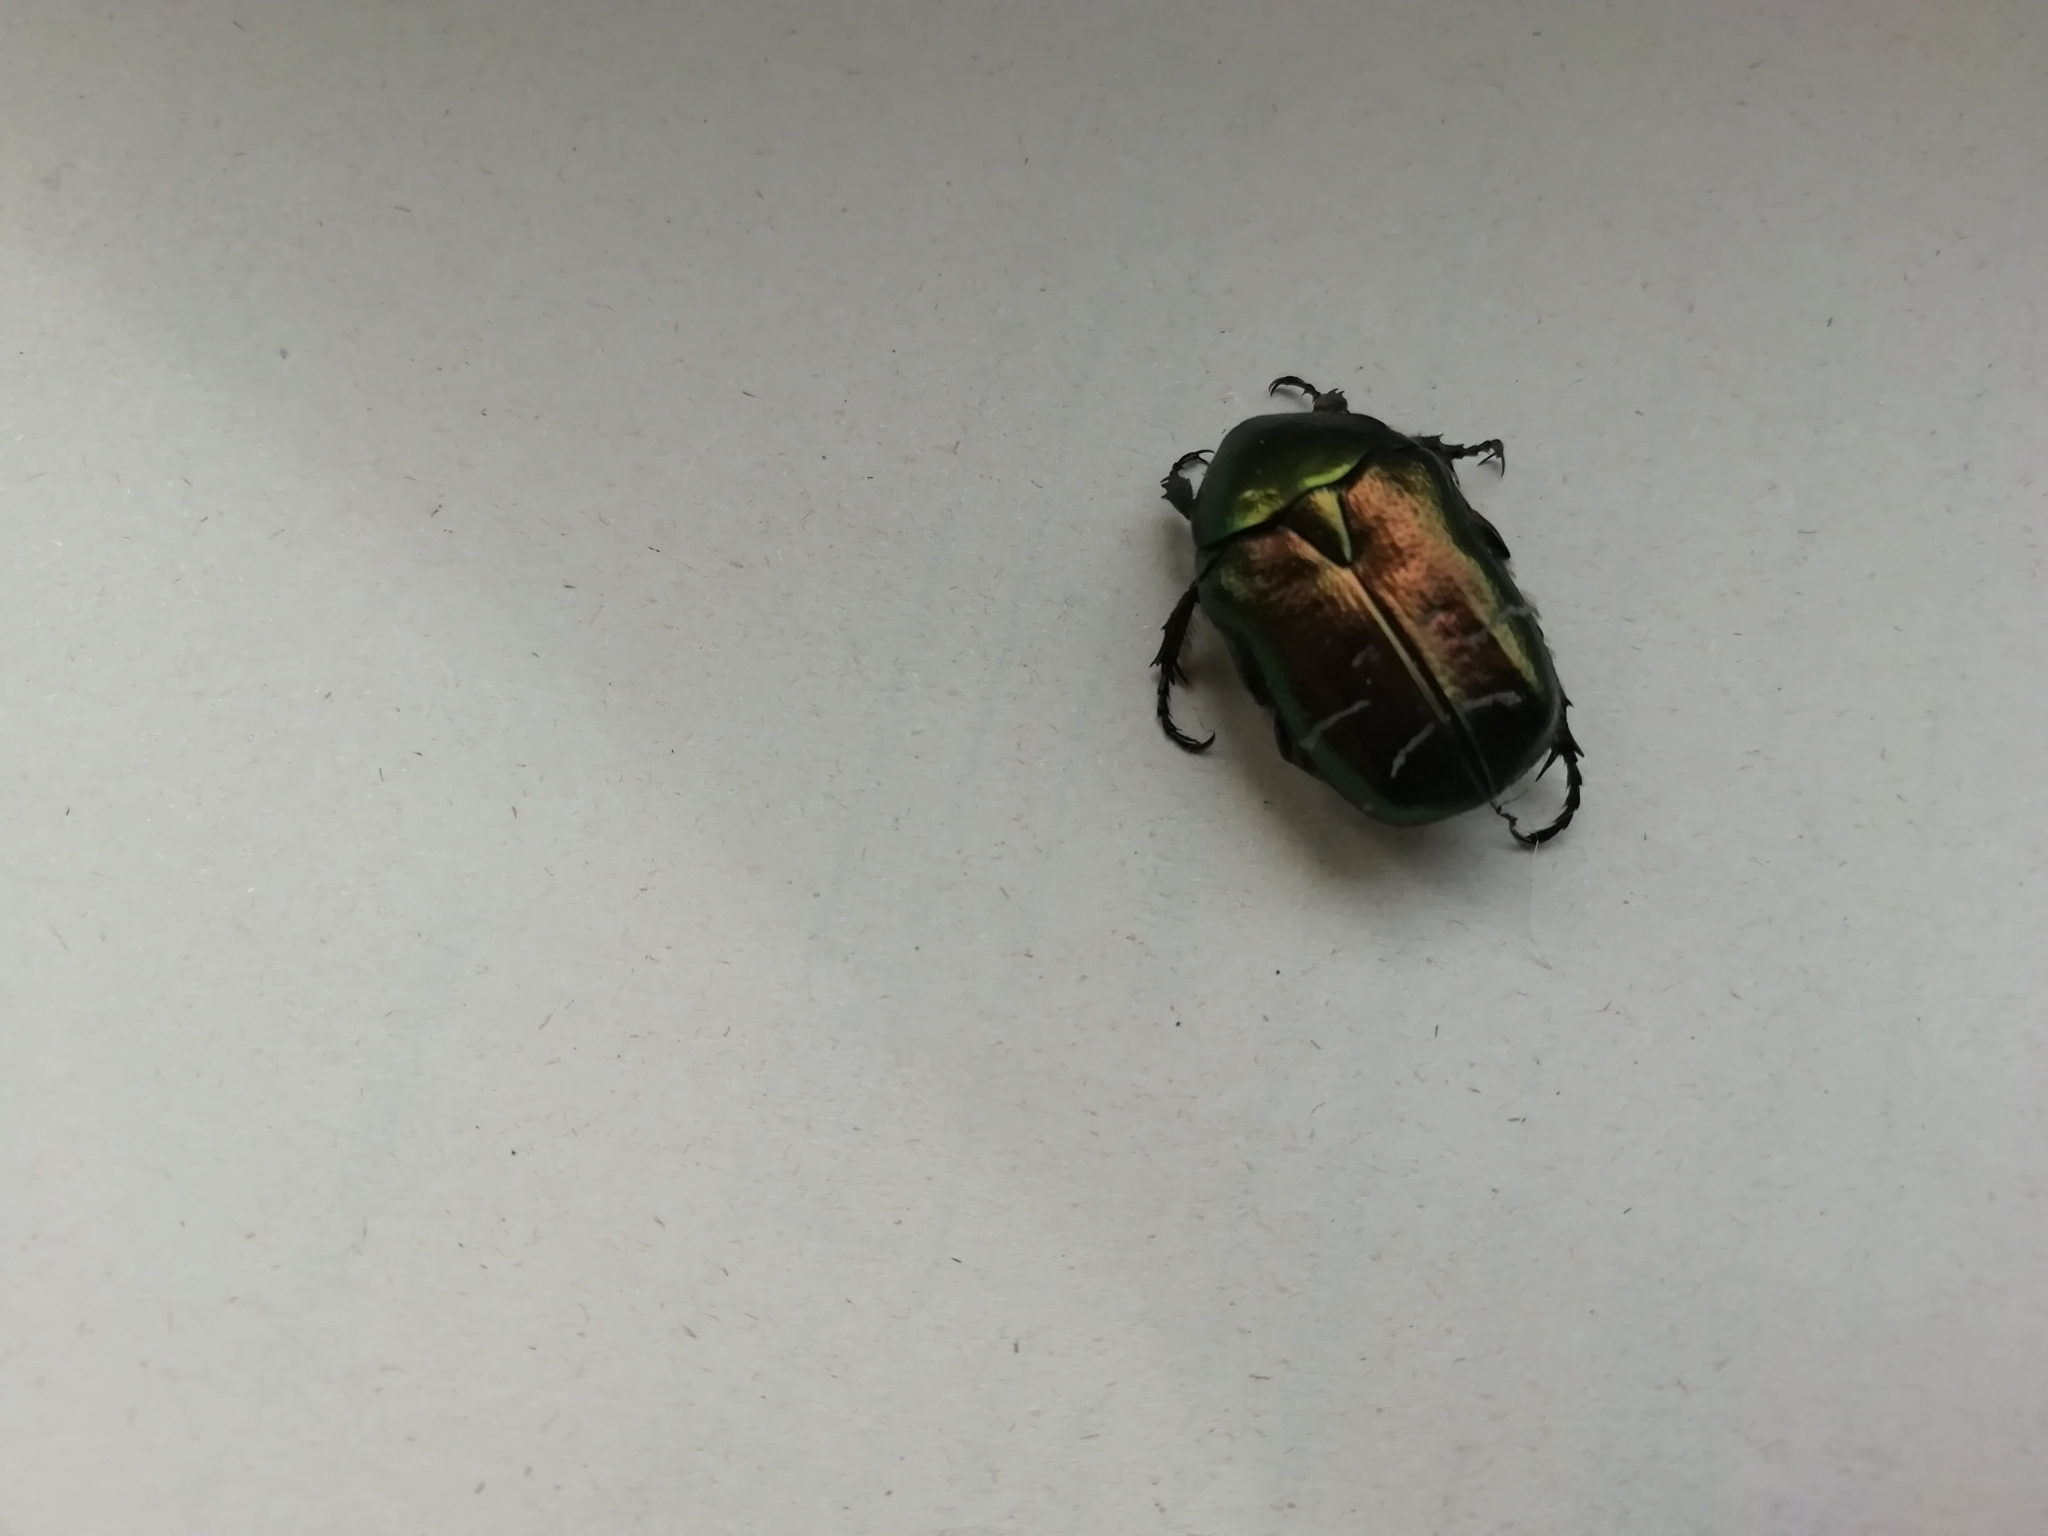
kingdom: Animalia
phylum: Arthropoda
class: Insecta
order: Coleoptera
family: Scarabaeidae
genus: Cetonia
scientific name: Cetonia aurata
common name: Rose chafer
